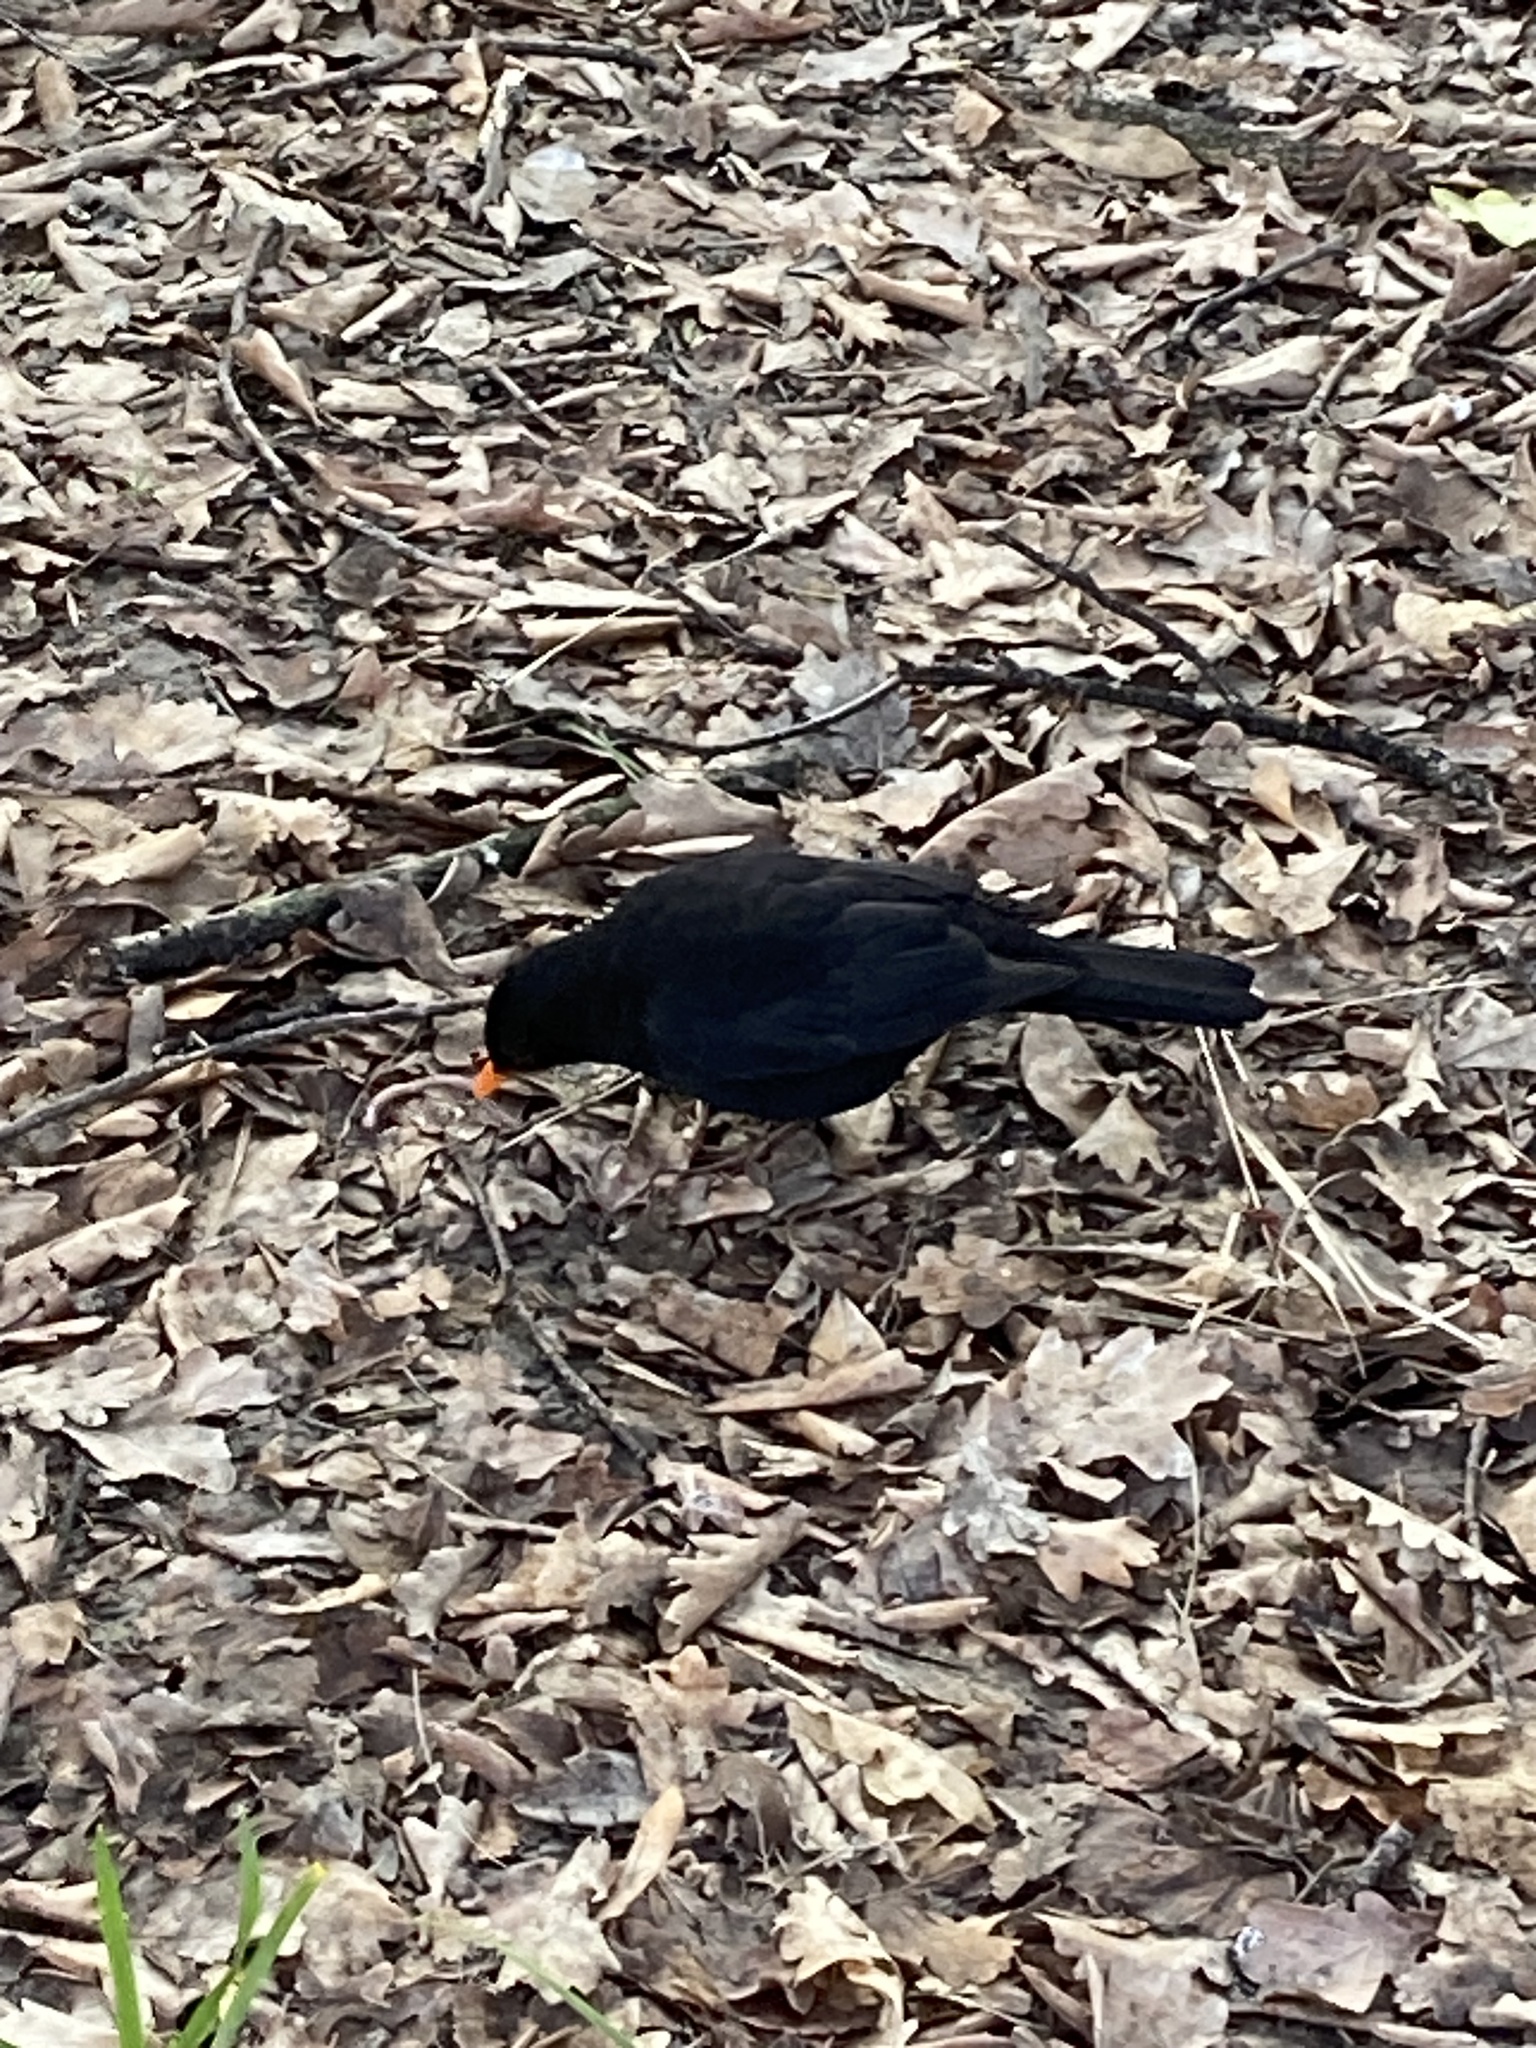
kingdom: Animalia
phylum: Chordata
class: Aves
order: Passeriformes
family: Turdidae
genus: Turdus
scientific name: Turdus merula
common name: Common blackbird
